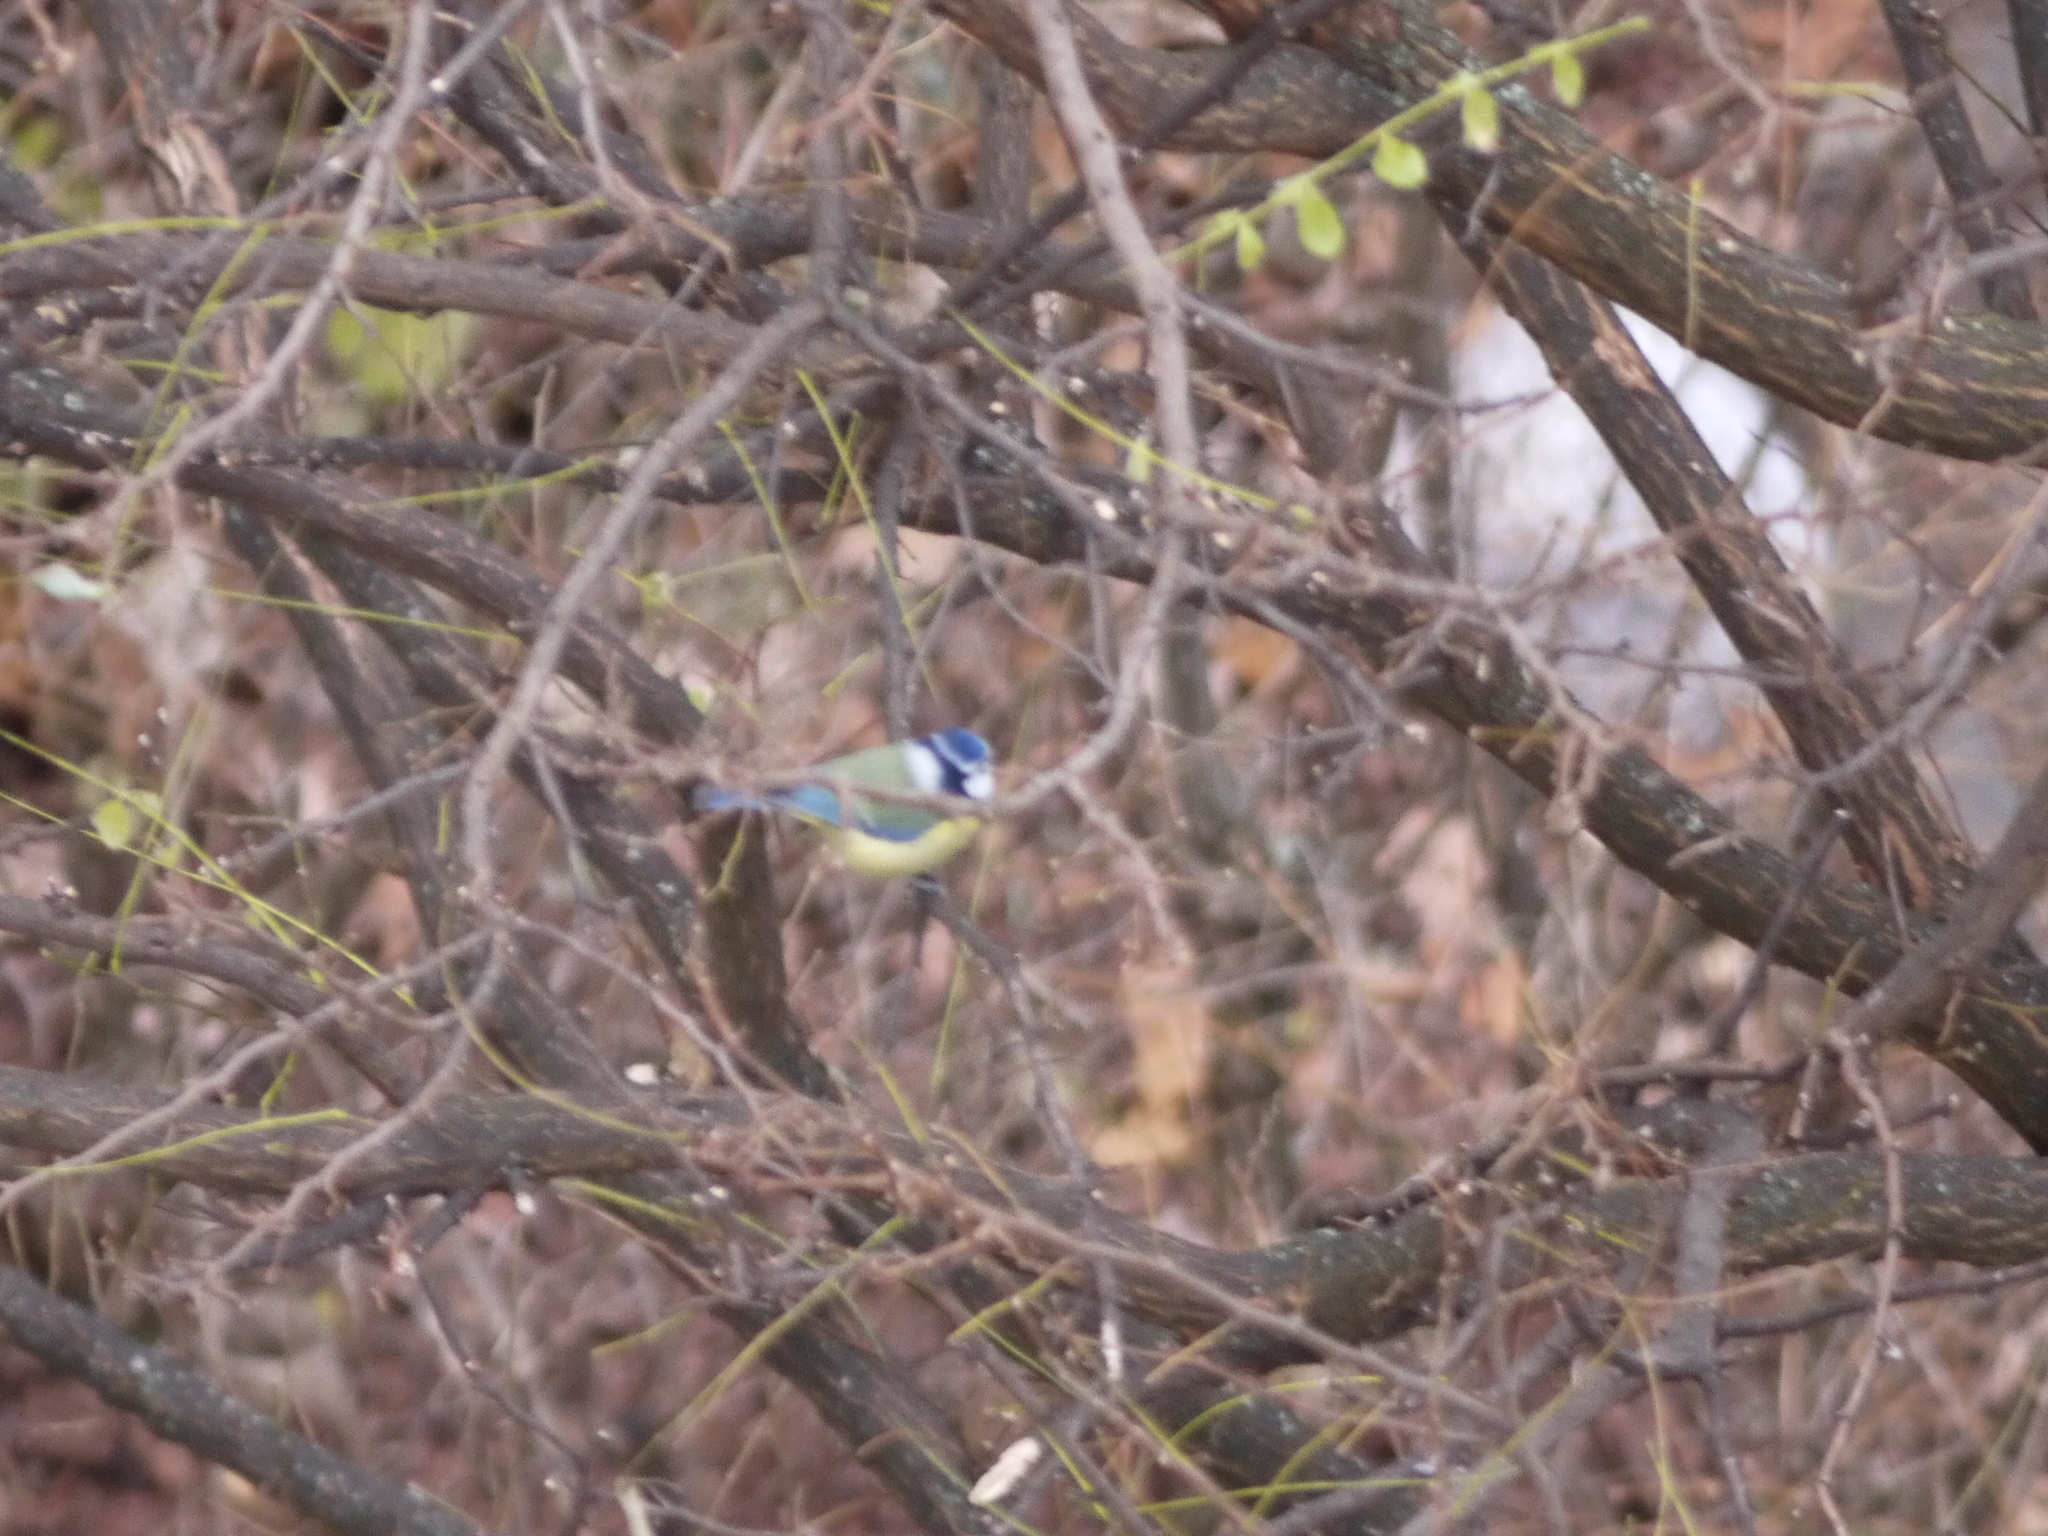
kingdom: Animalia
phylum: Chordata
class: Aves
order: Passeriformes
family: Paridae
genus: Cyanistes
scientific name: Cyanistes caeruleus
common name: Eurasian blue tit
